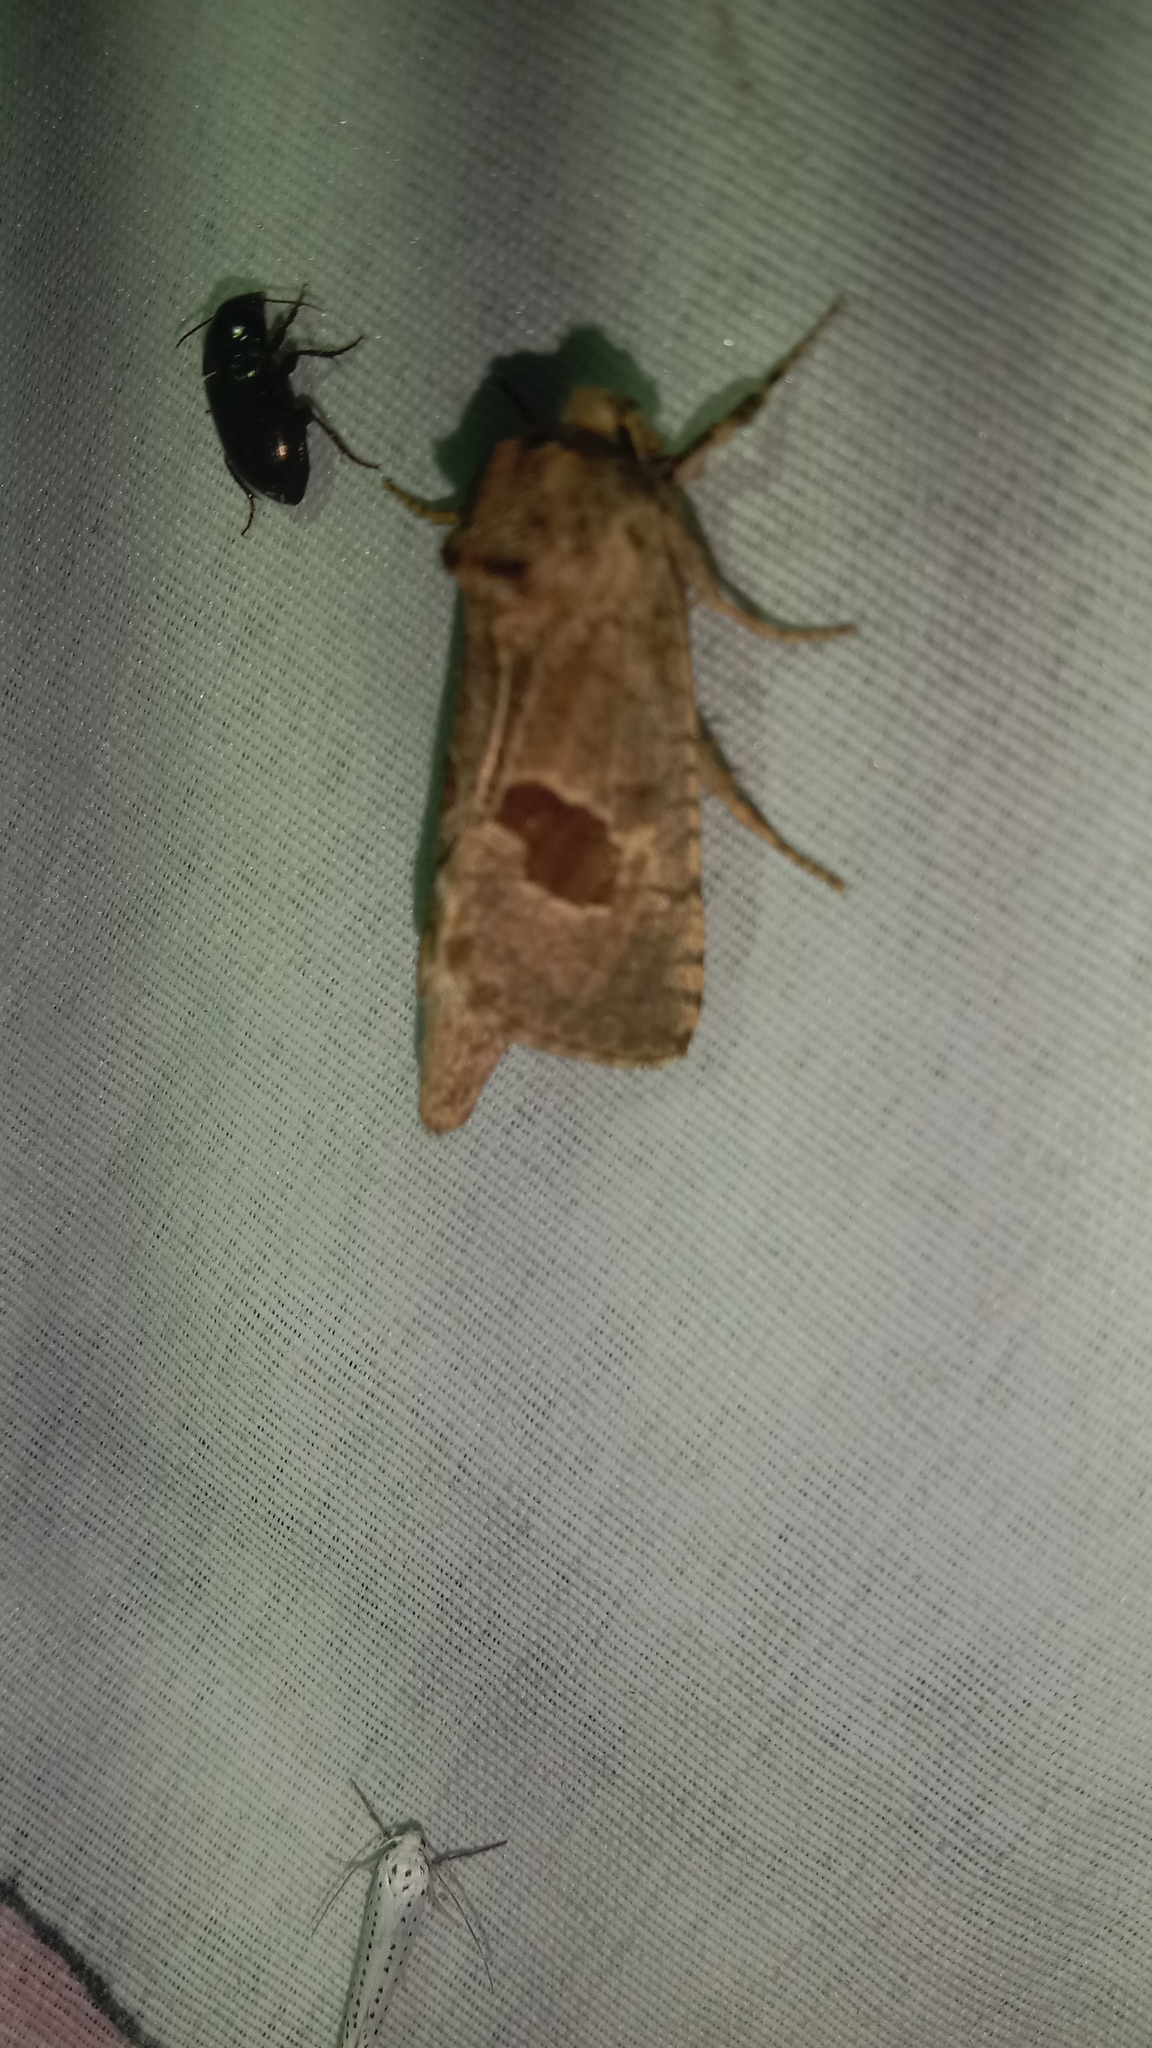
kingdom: Animalia
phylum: Arthropoda
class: Insecta
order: Lepidoptera
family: Cossidae
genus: Paracossulus
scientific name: Paracossulus thrips
